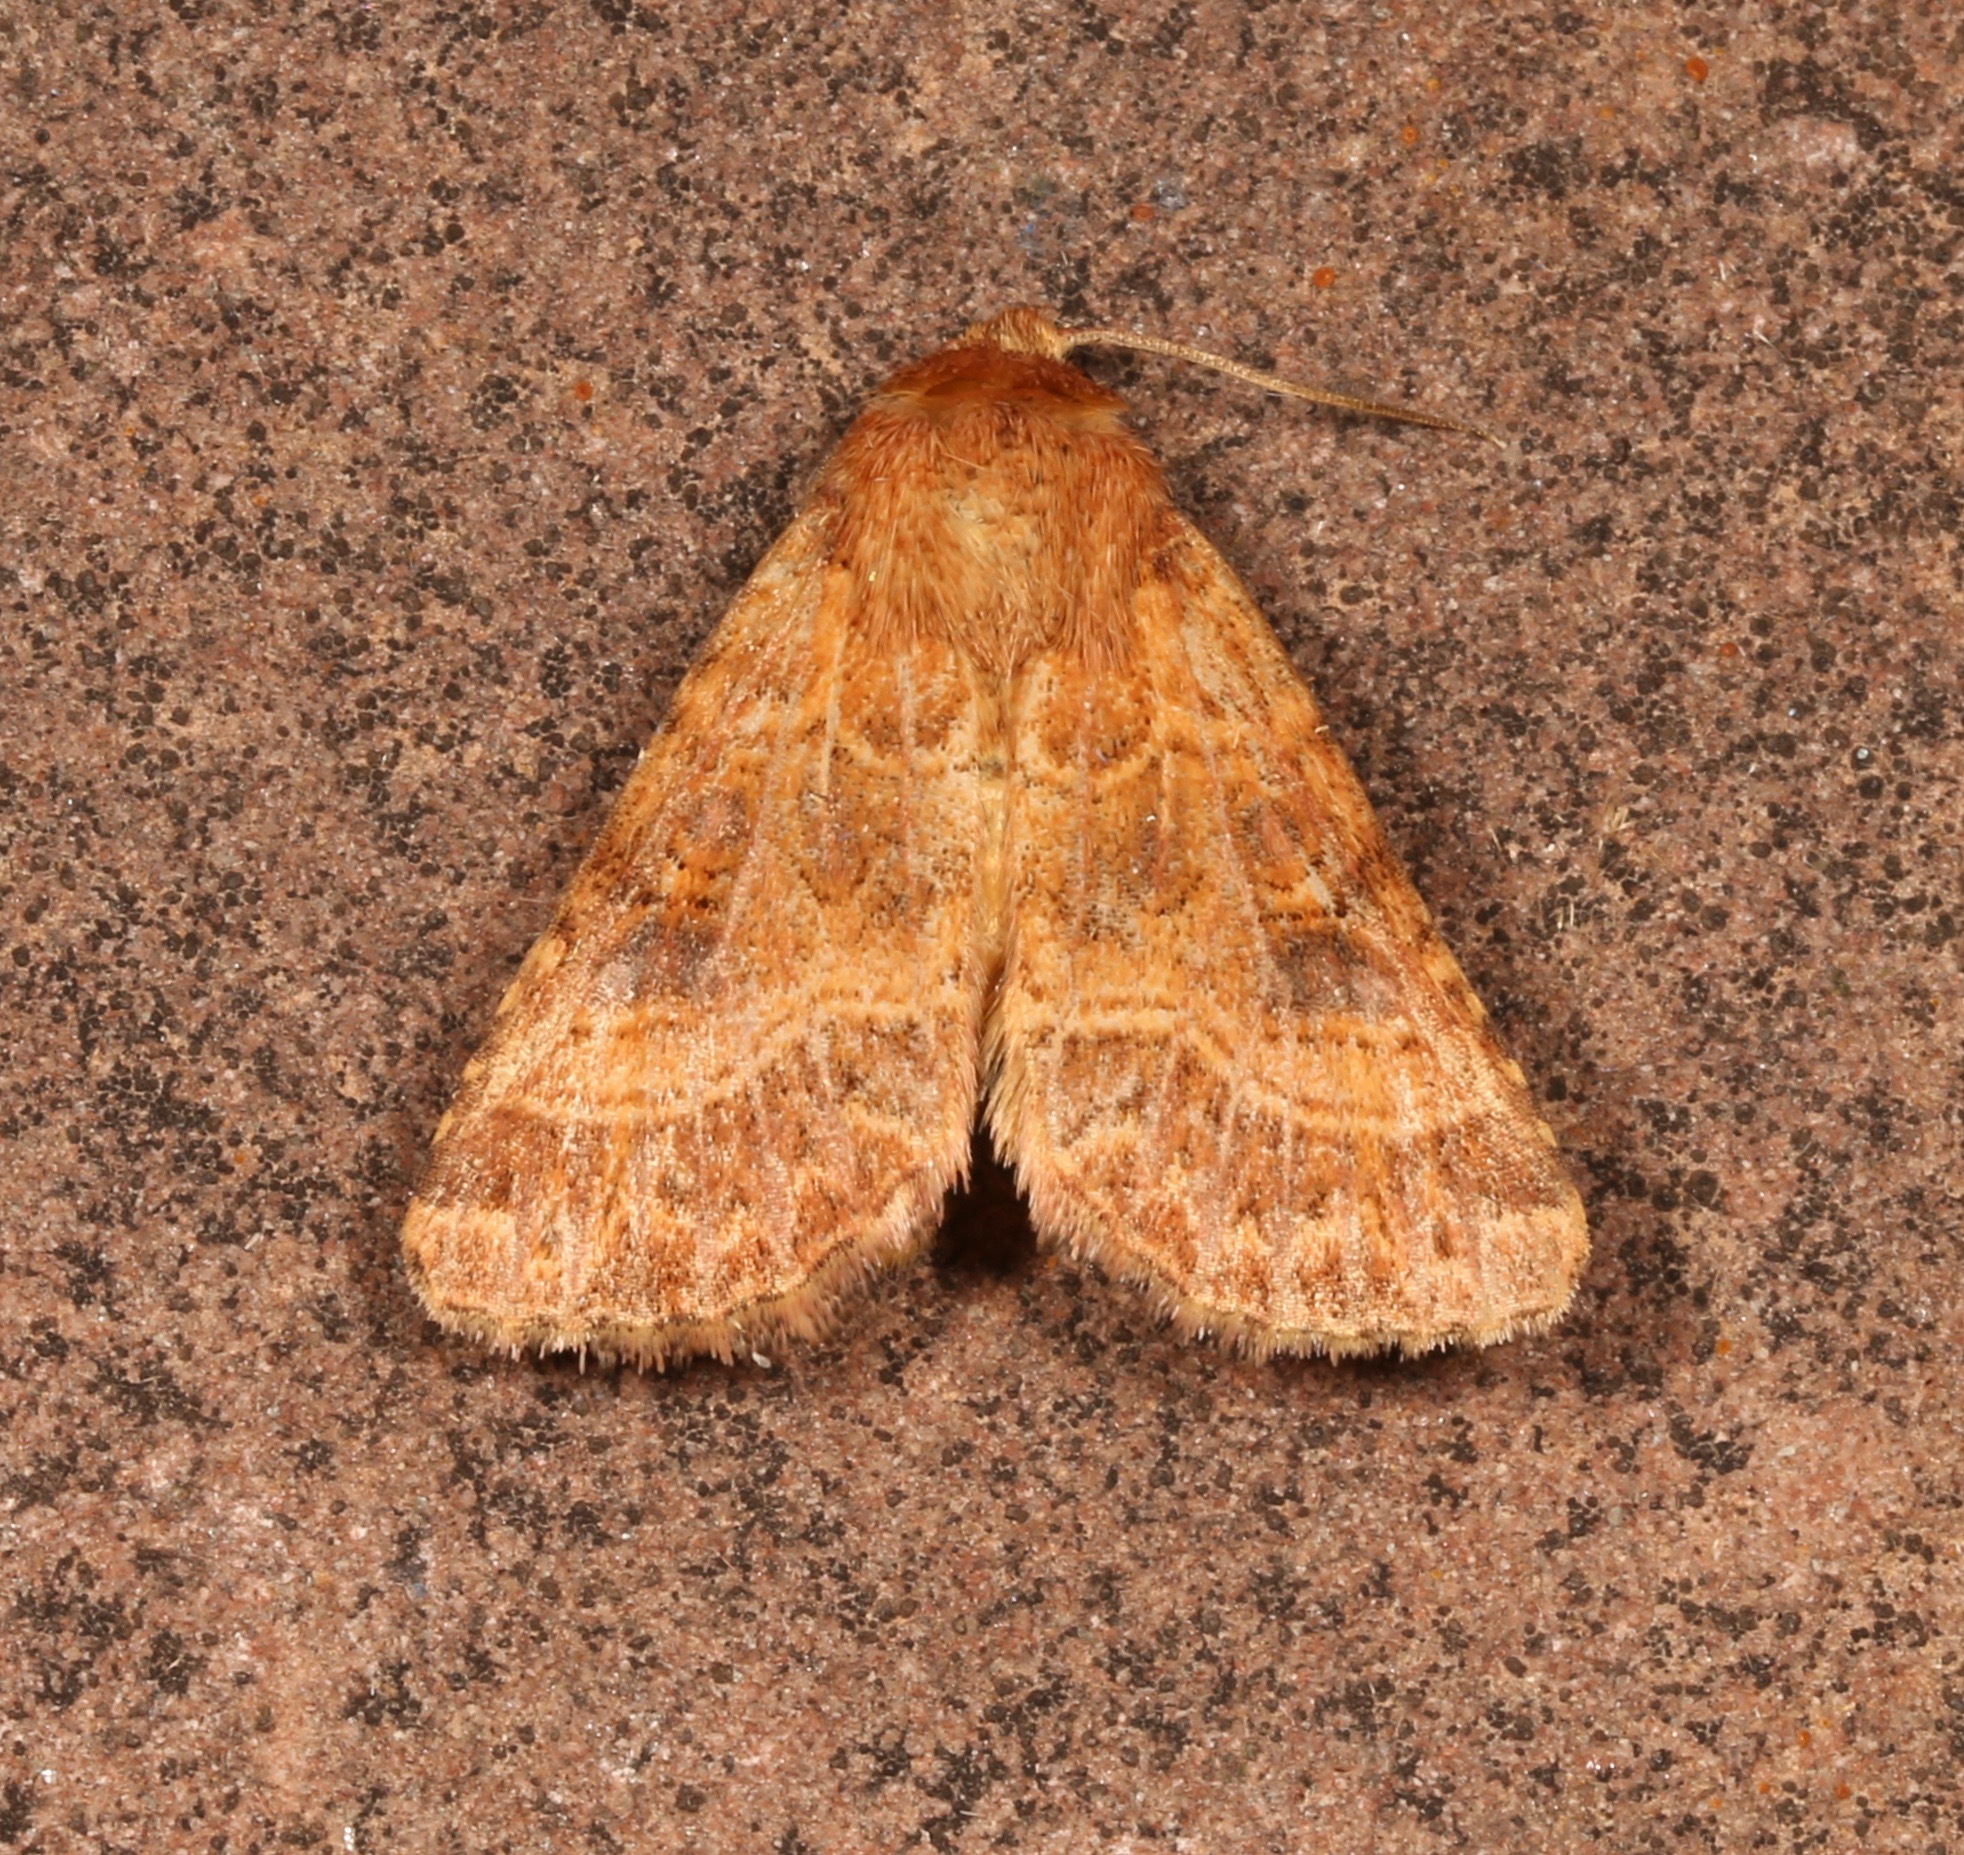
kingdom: Animalia
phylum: Arthropoda
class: Insecta
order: Lepidoptera
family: Noctuidae
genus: Schinia
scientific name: Schinia mexicana
